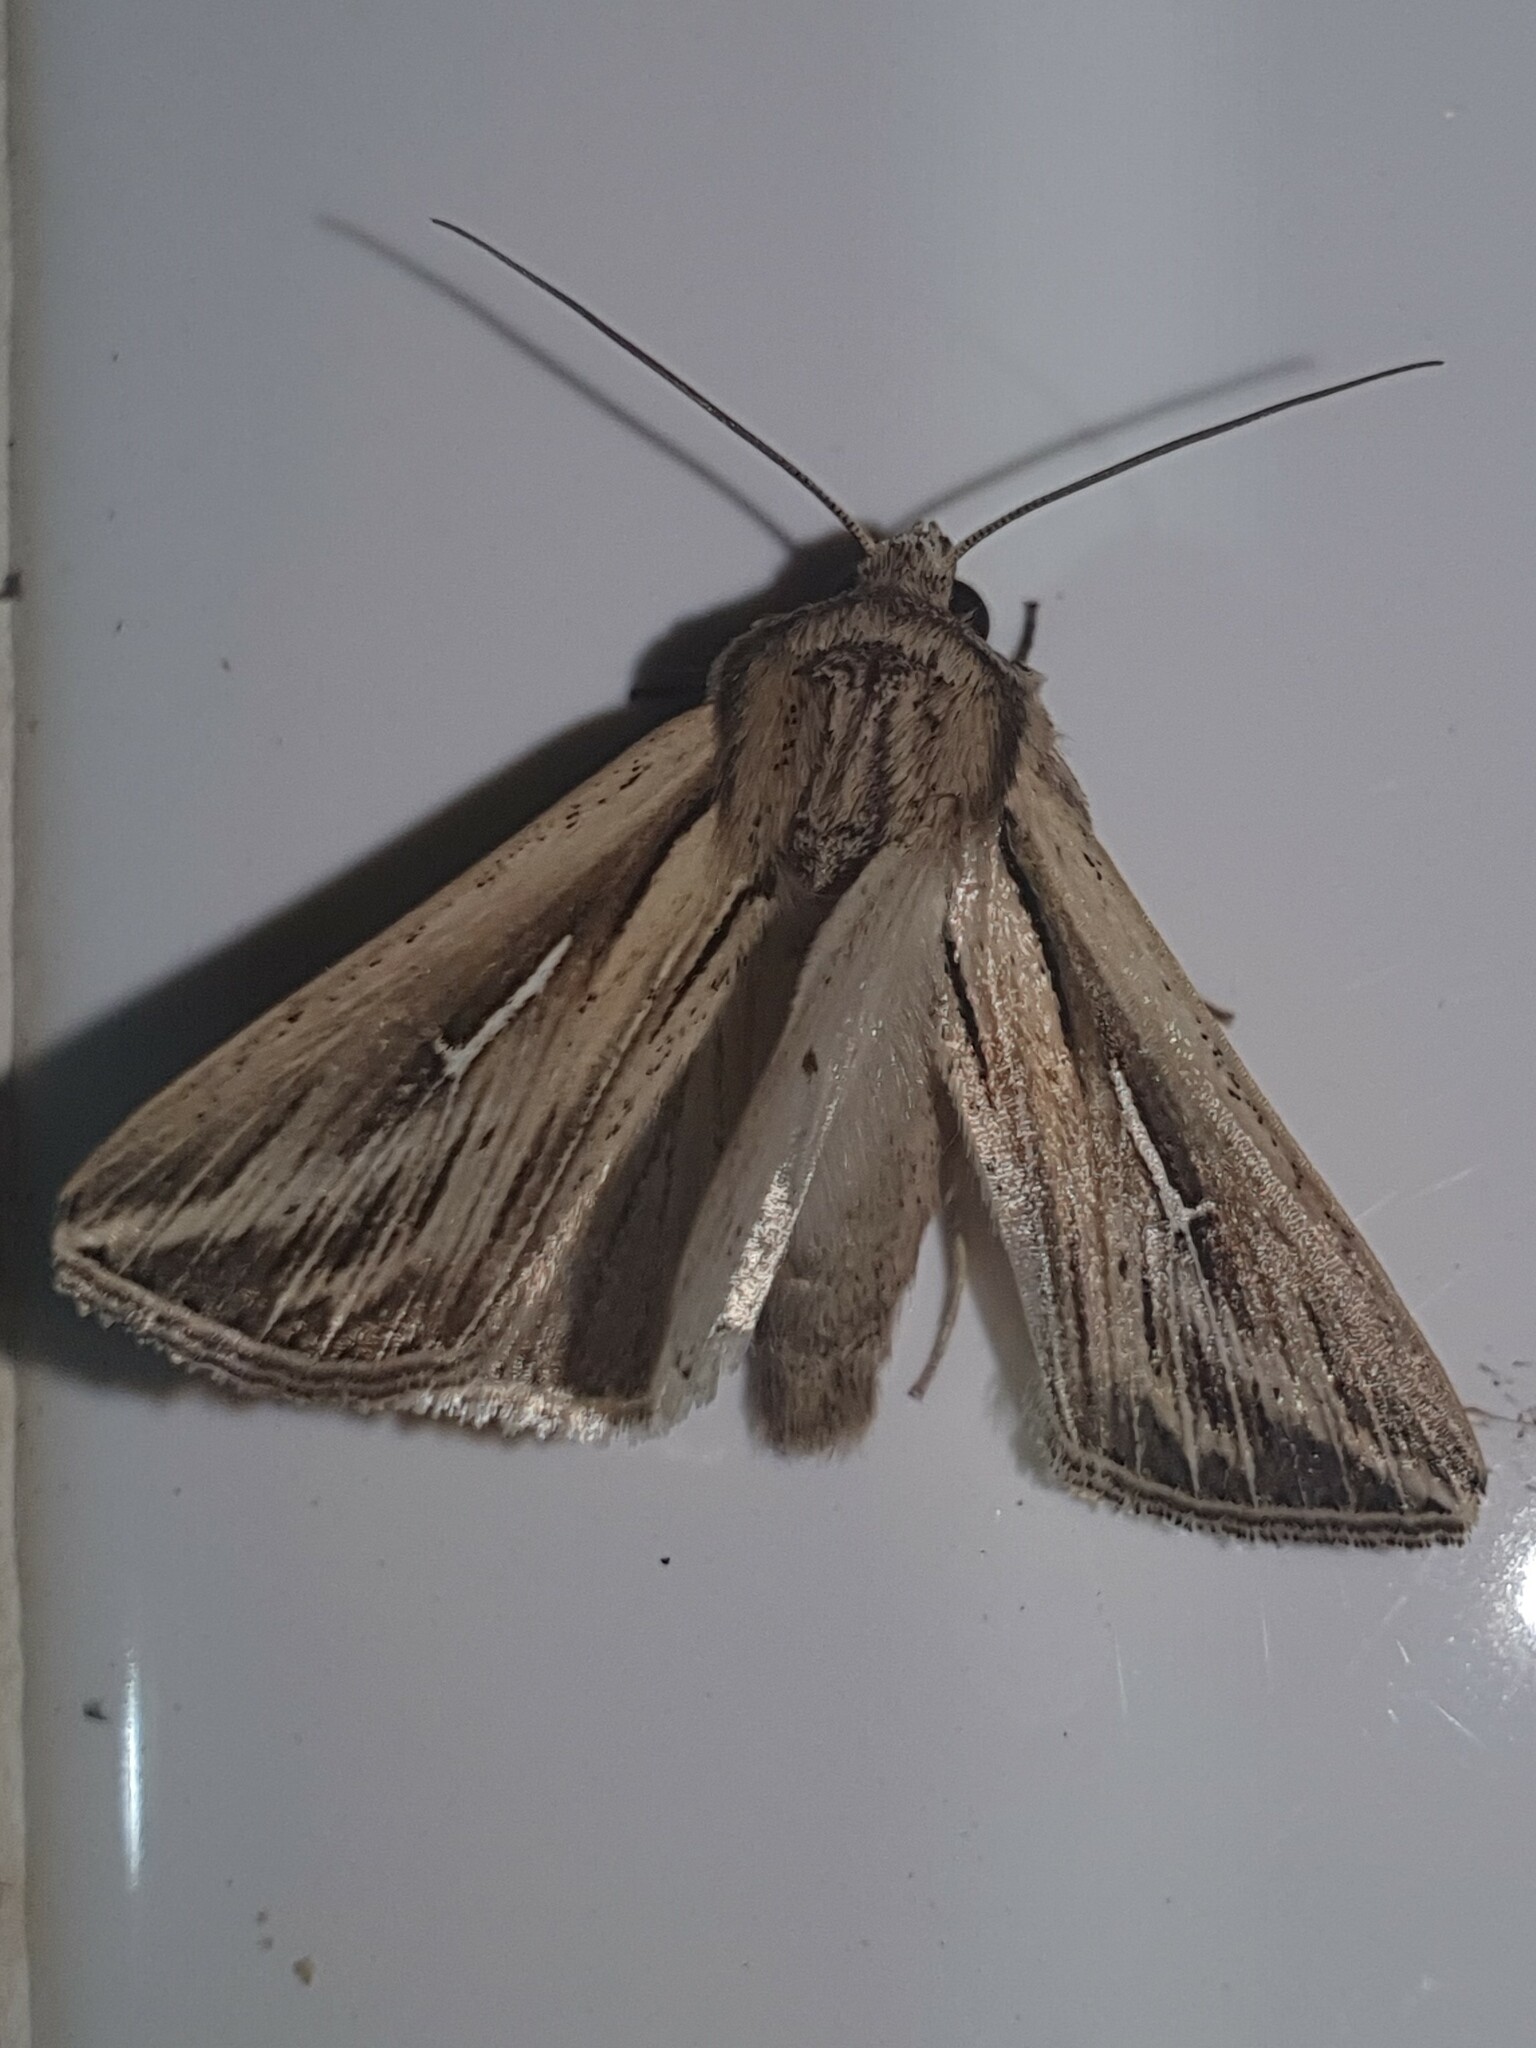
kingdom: Animalia
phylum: Arthropoda
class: Insecta
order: Lepidoptera
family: Noctuidae
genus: Mythimna
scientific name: Mythimna l-album
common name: L-album wainscot
